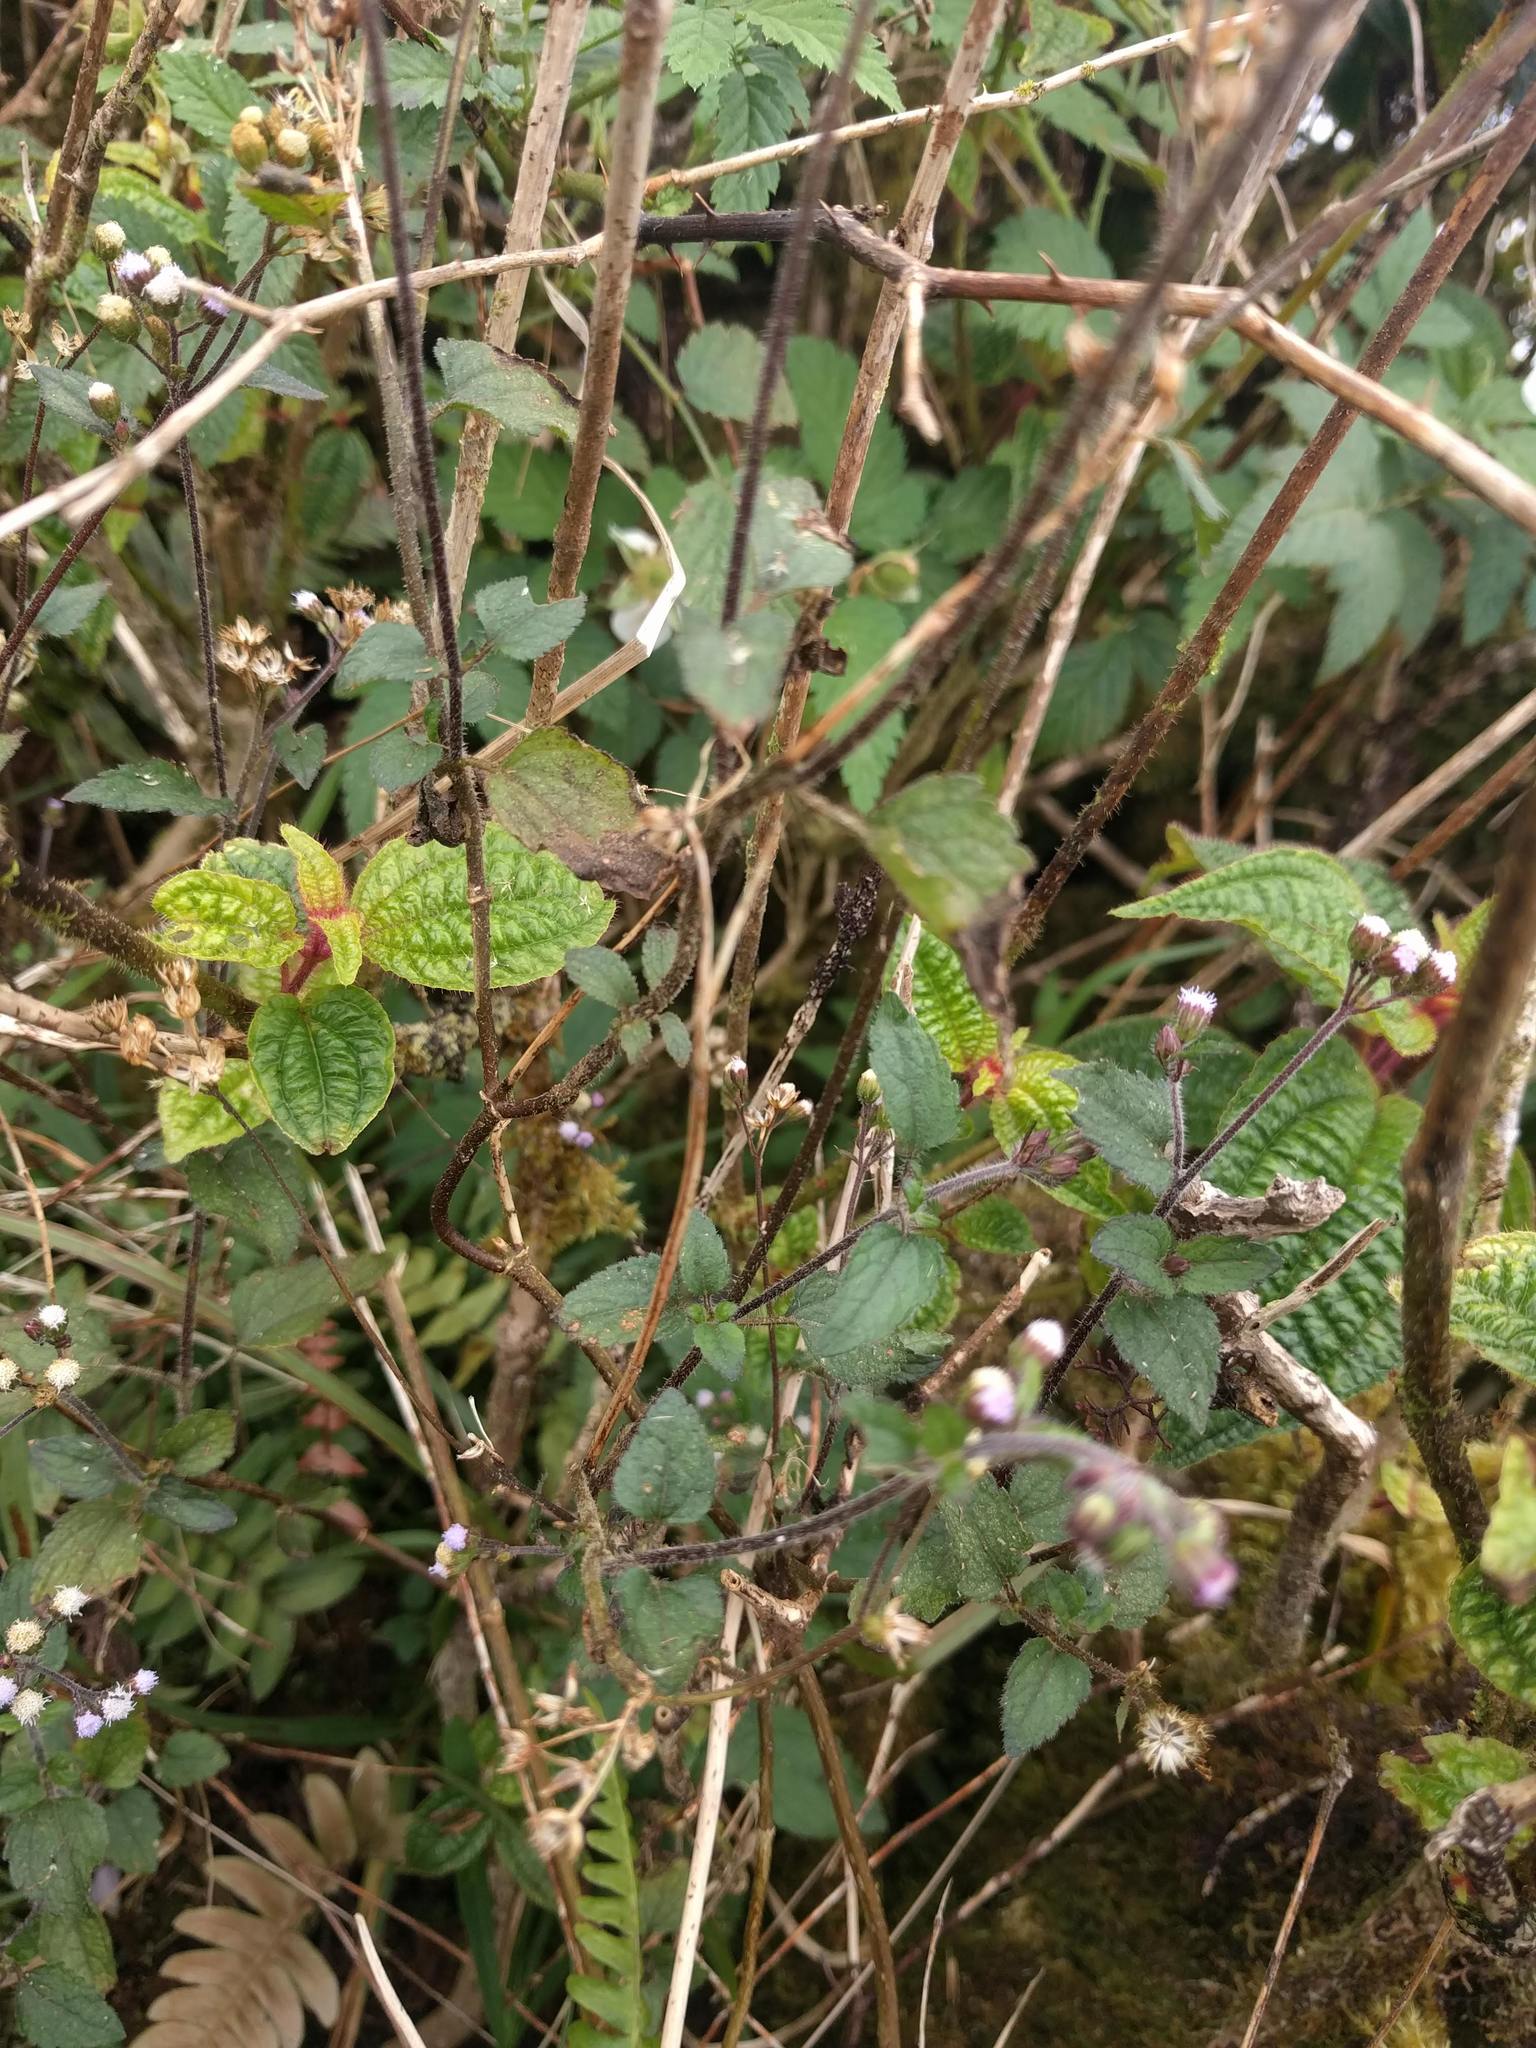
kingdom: Plantae
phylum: Tracheophyta
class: Magnoliopsida
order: Asterales
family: Asteraceae
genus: Ageratina
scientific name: Ageratina adenophora
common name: Sticky snakeroot
